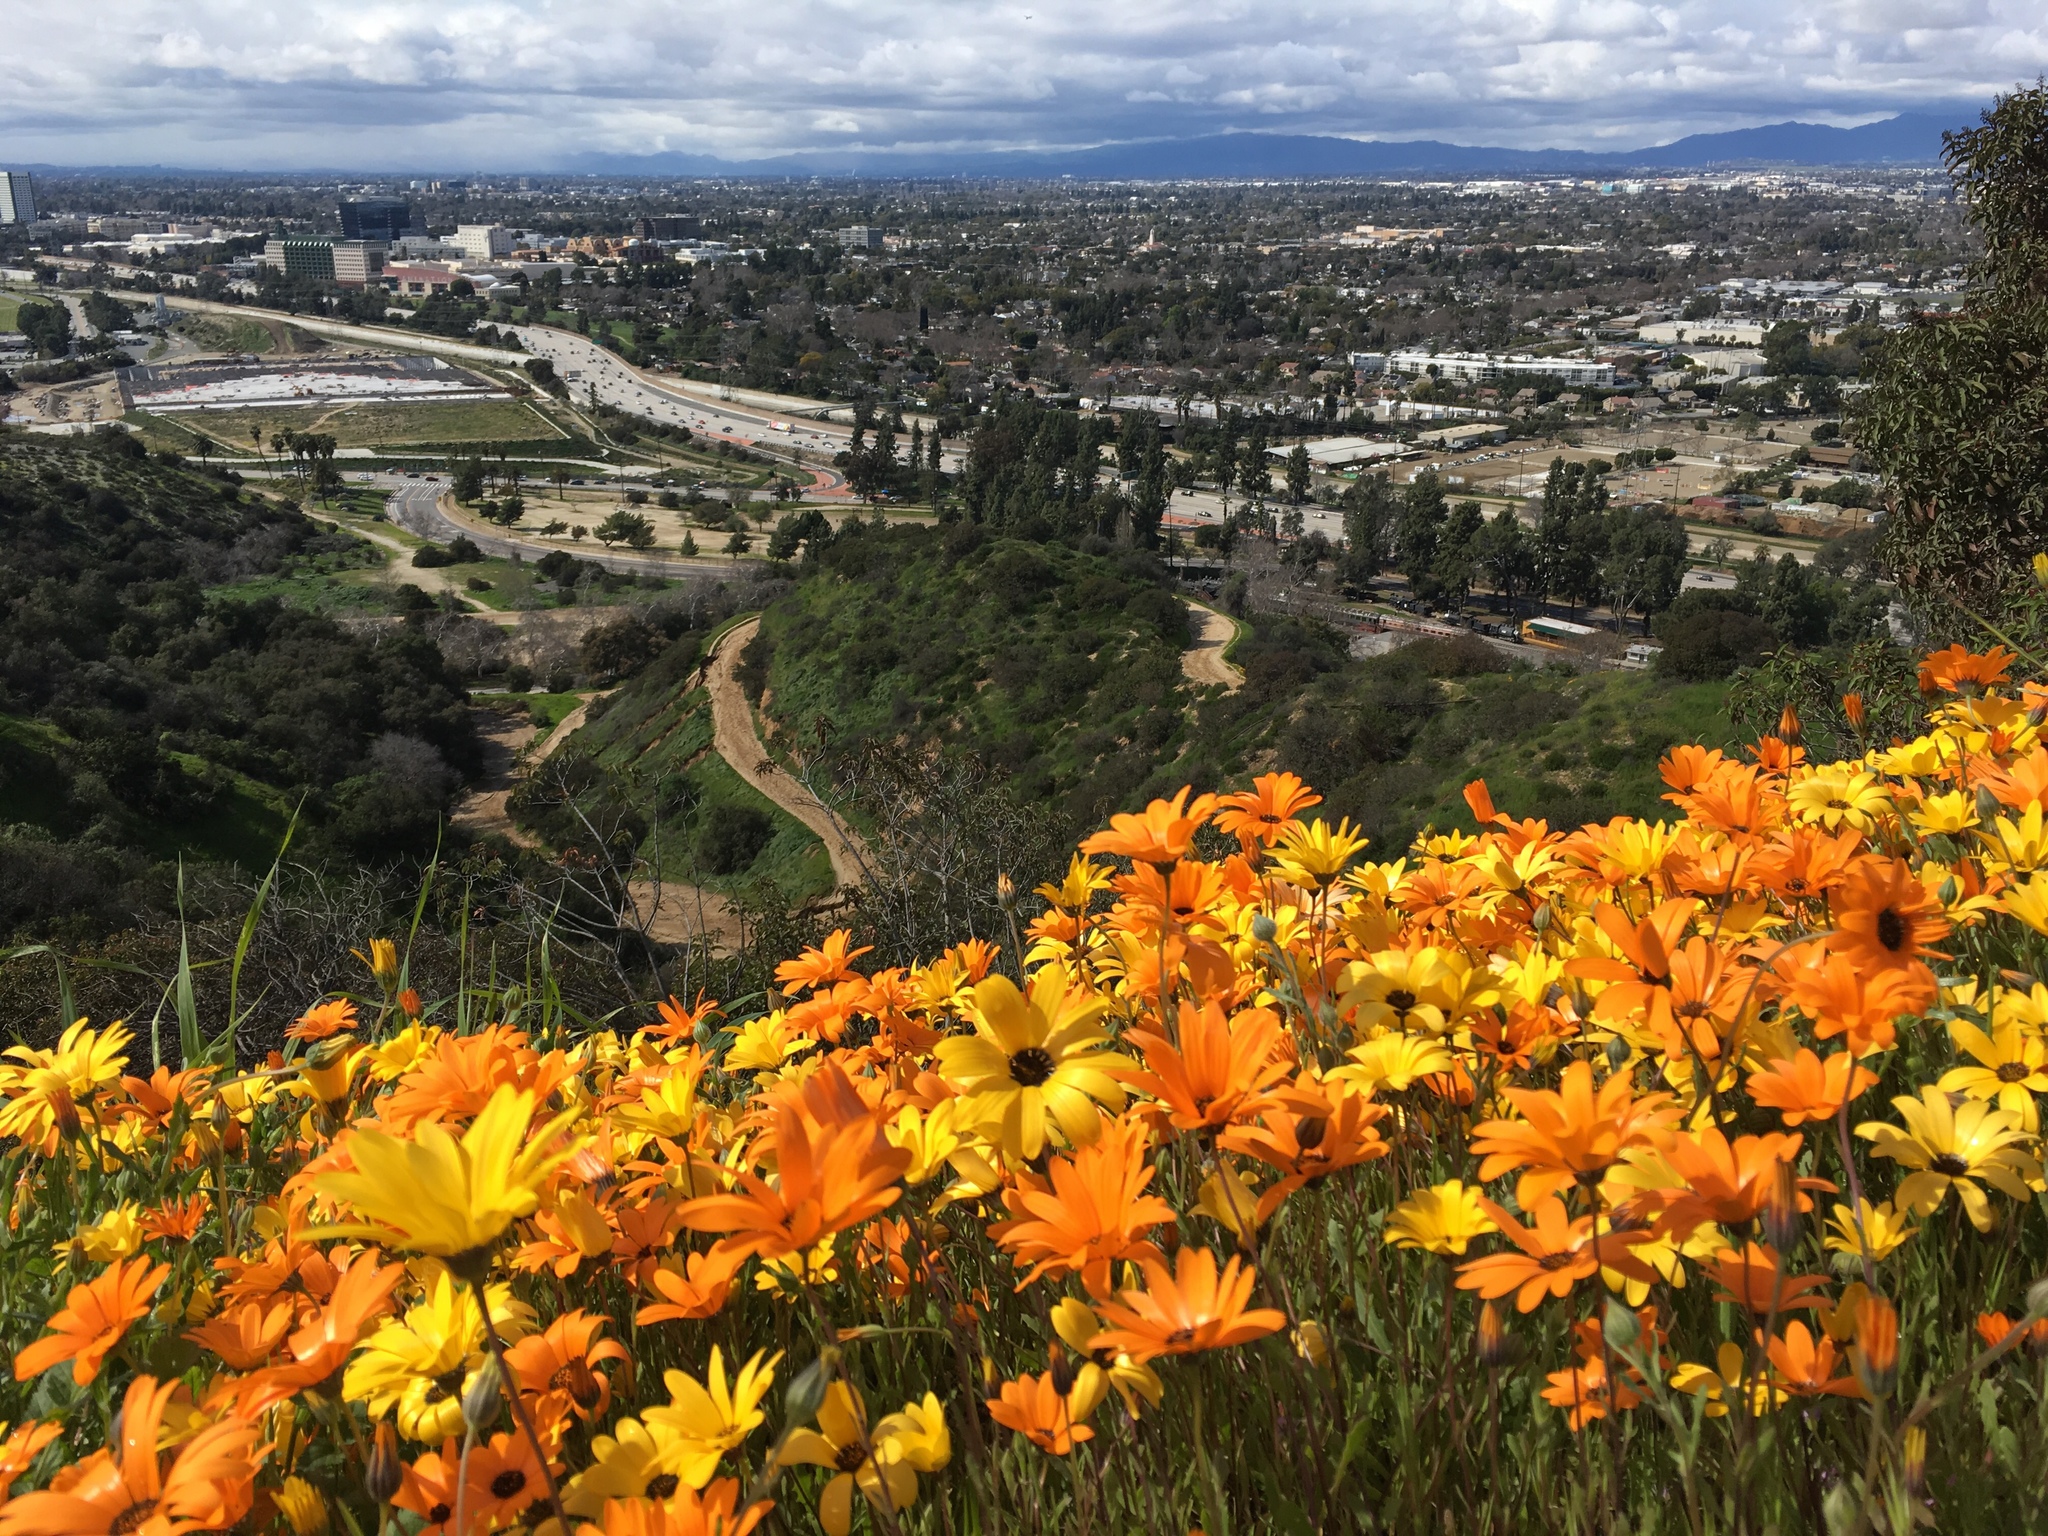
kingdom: Plantae
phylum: Tracheophyta
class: Magnoliopsida
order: Asterales
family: Asteraceae
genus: Gazania
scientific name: Gazania linearis
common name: Treasureflower
